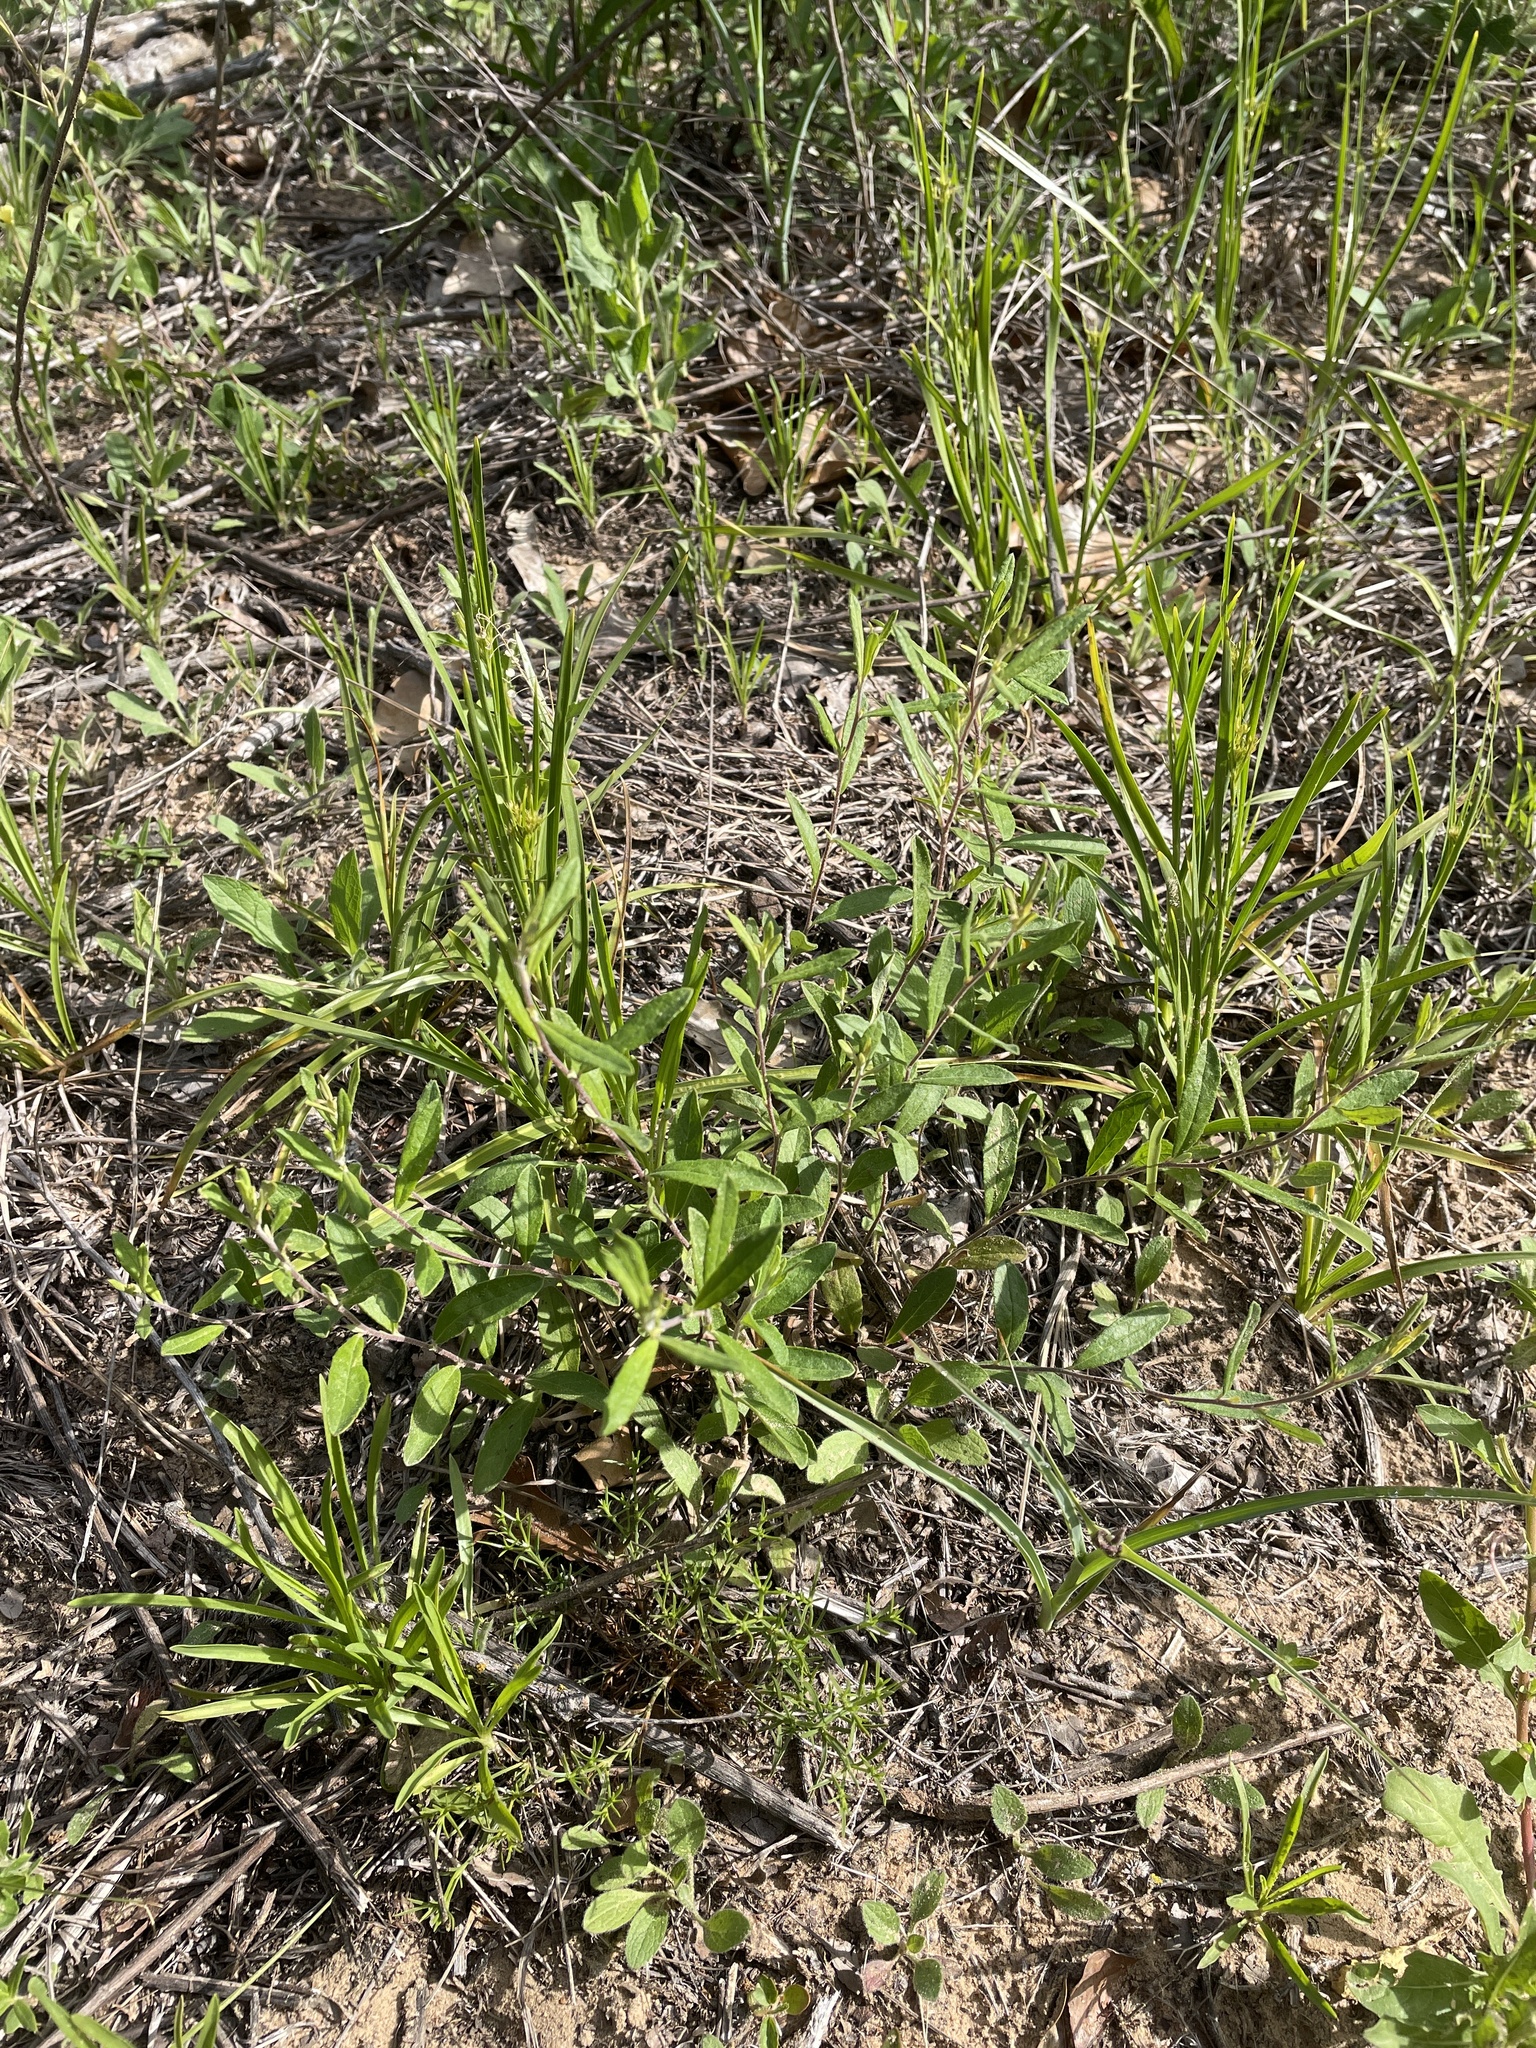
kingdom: Plantae
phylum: Tracheophyta
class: Magnoliopsida
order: Malvales
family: Cistaceae
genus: Crocanthemum
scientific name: Crocanthemum georgianum
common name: Georgia frostweed
